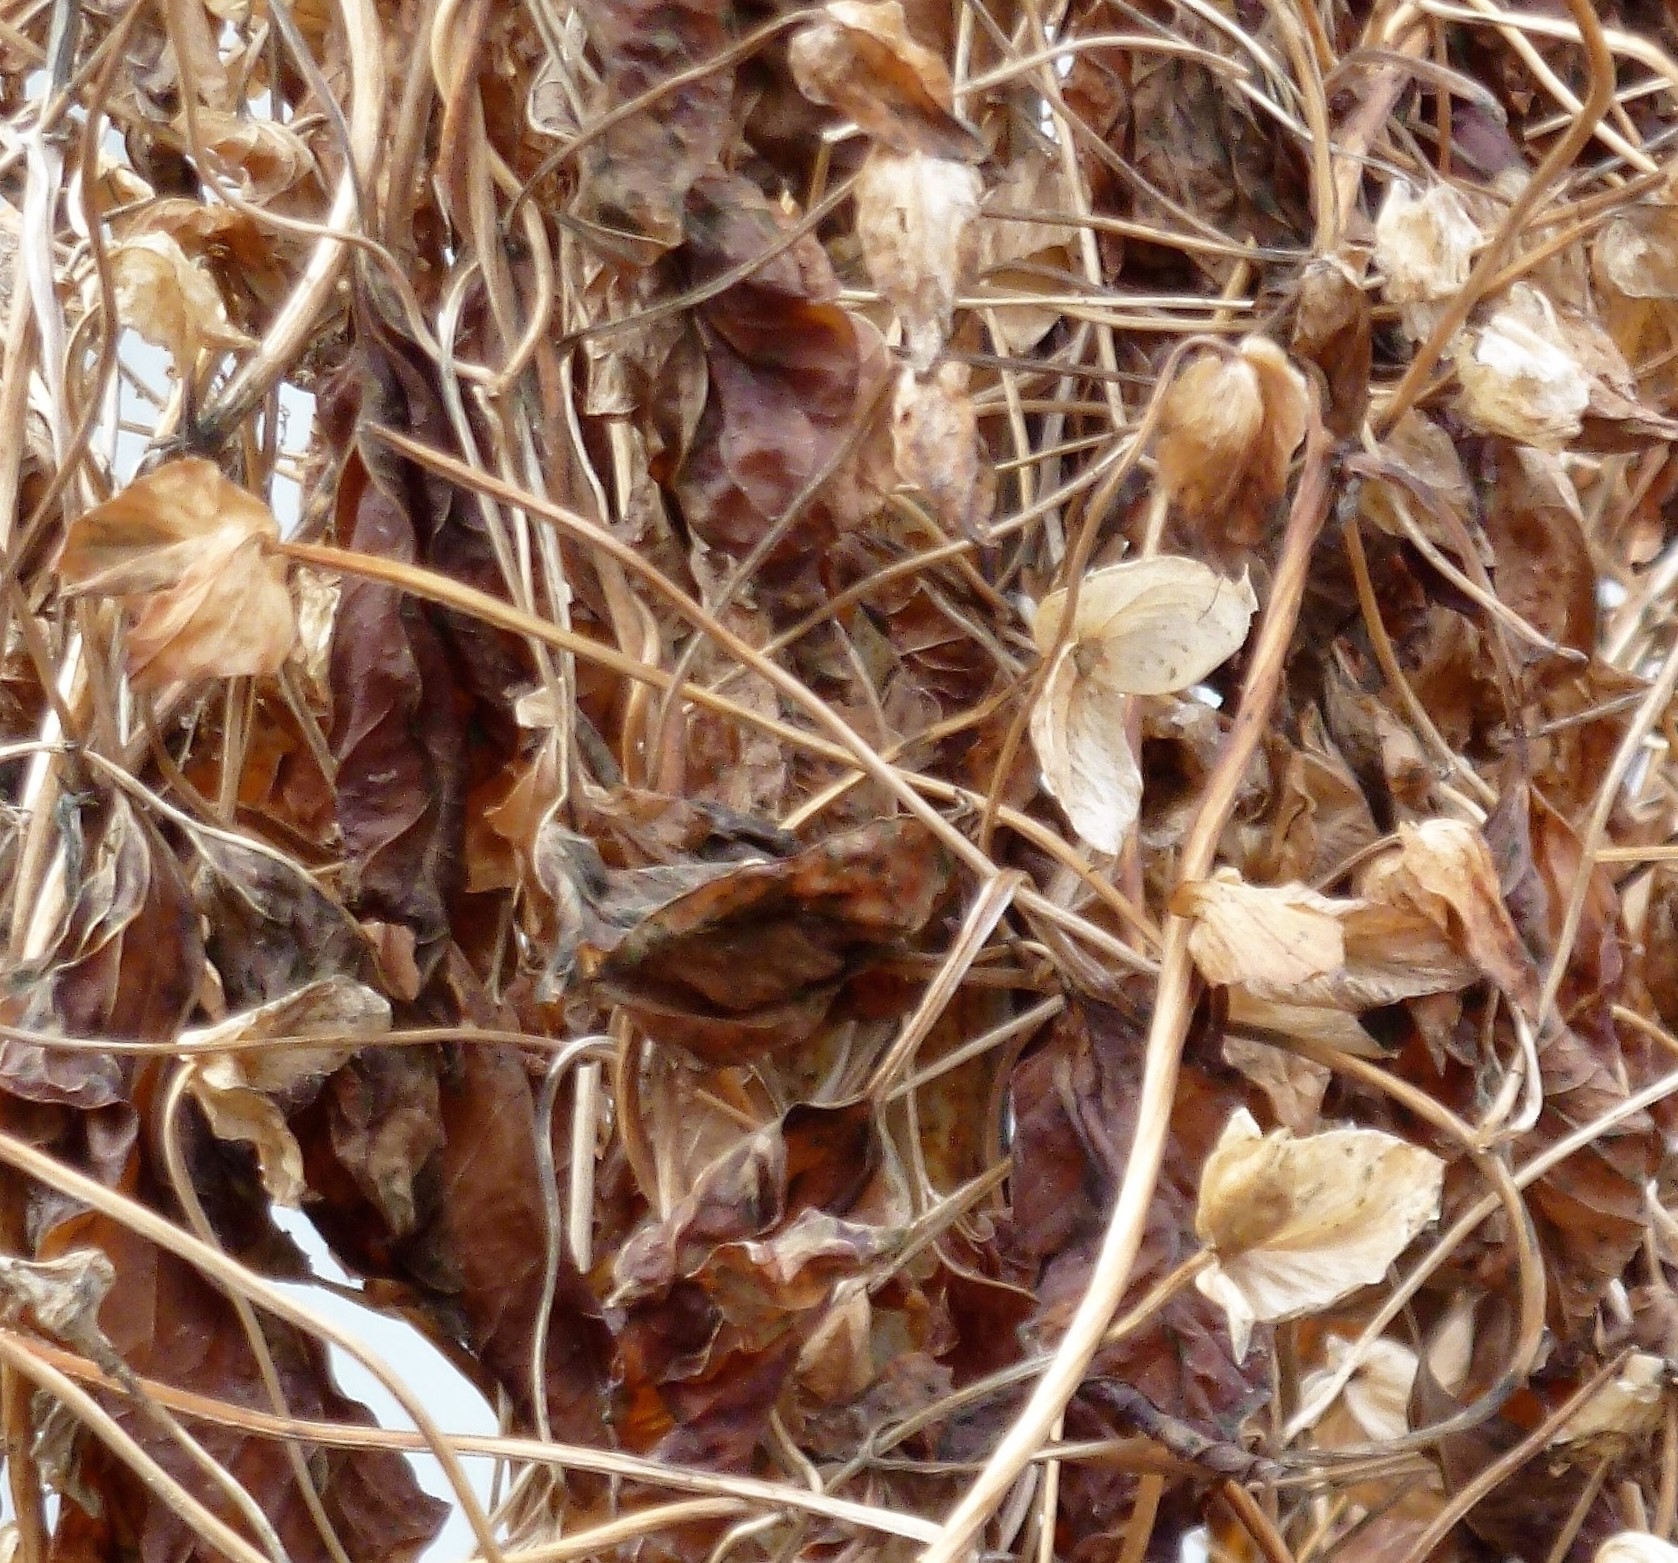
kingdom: Plantae
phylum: Tracheophyta
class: Magnoliopsida
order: Solanales
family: Convolvulaceae
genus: Calystegia
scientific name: Calystegia
